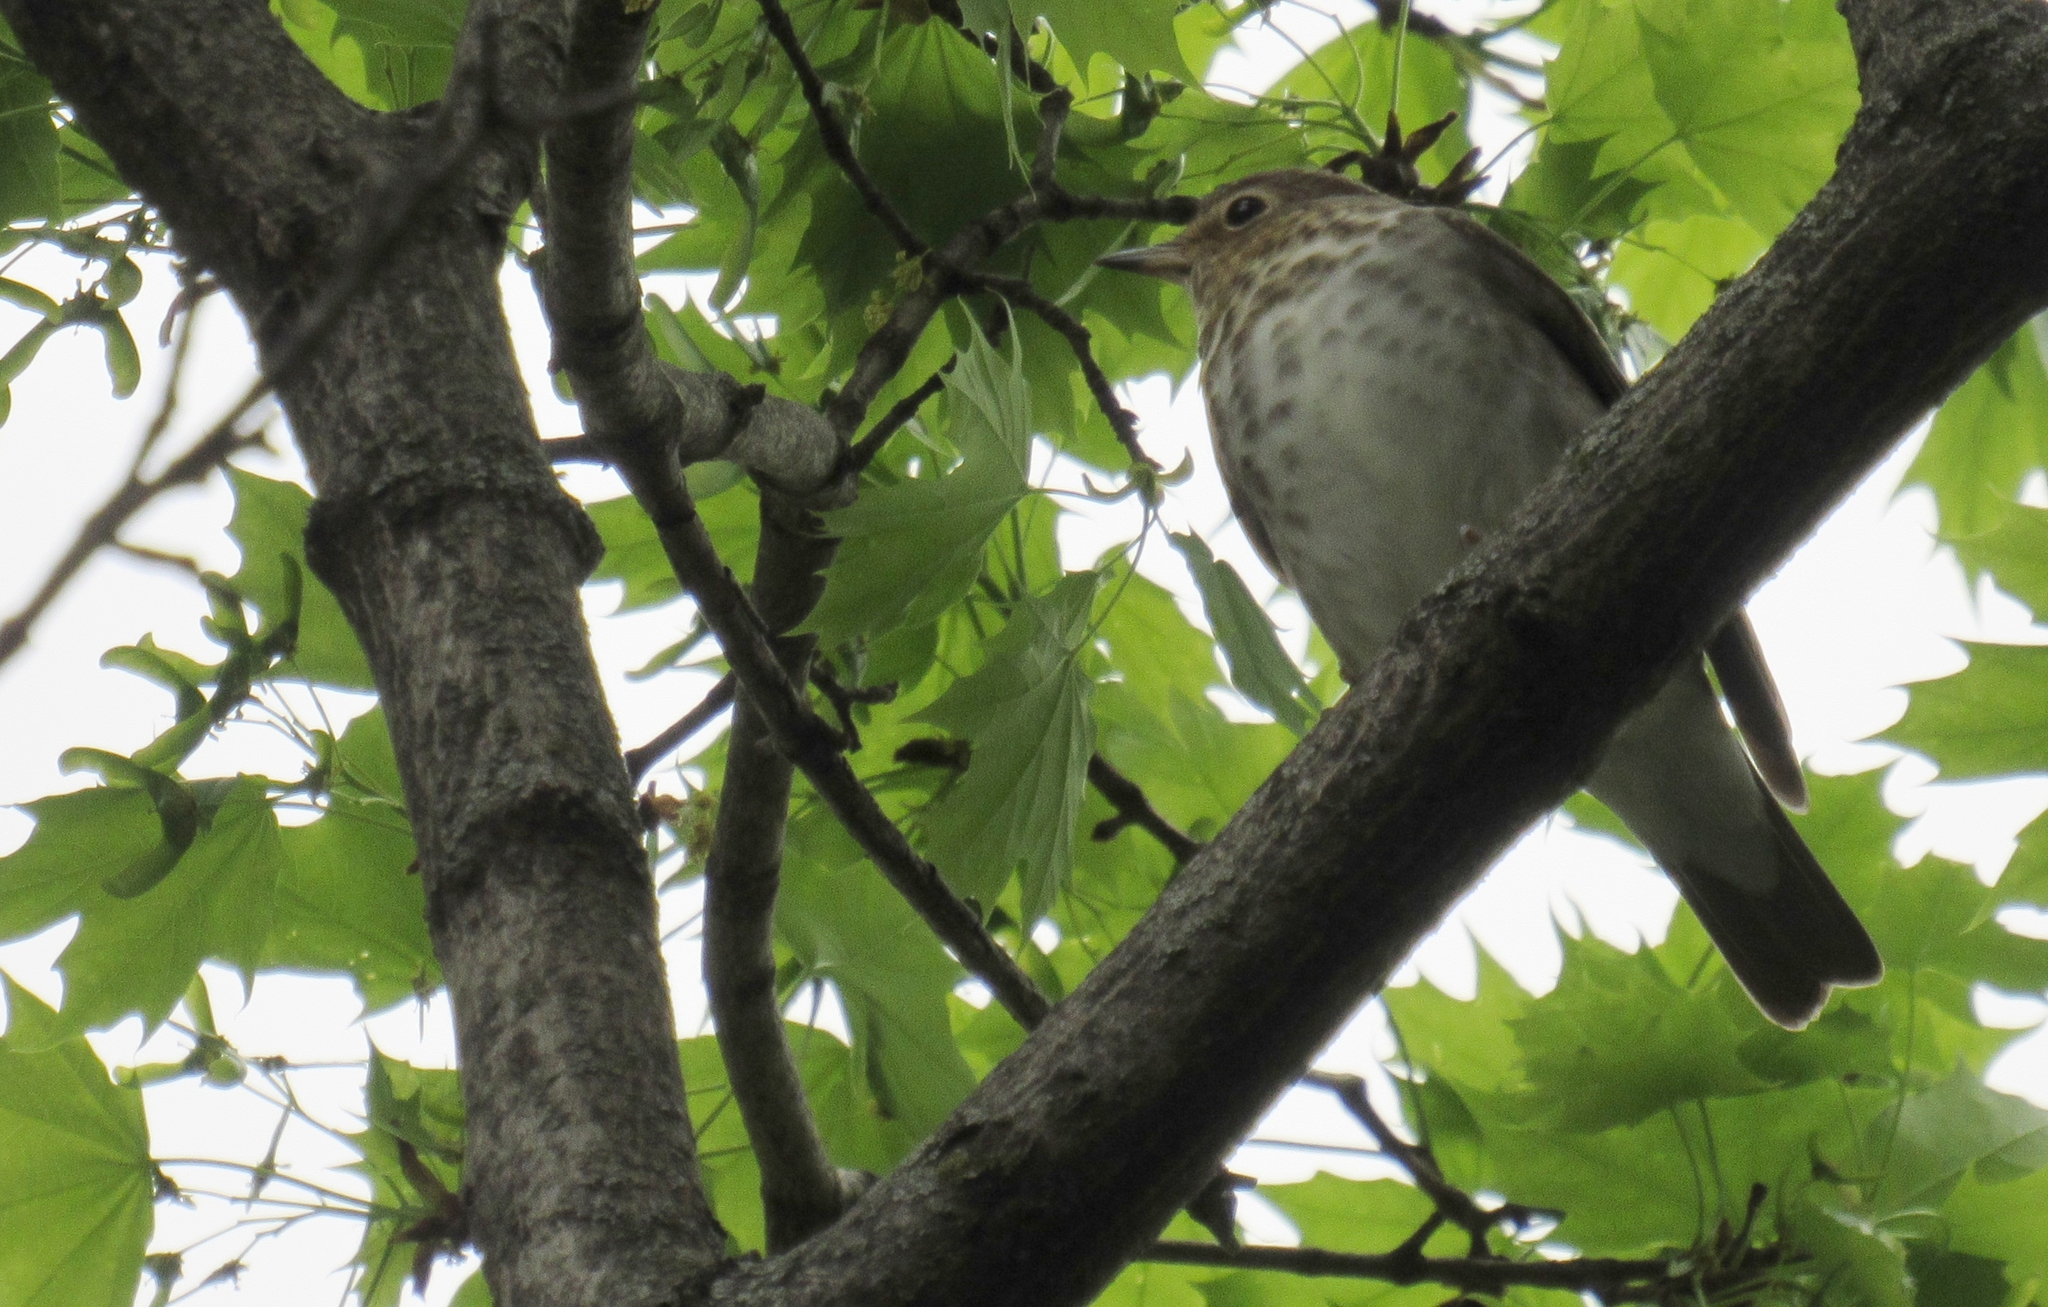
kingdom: Animalia
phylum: Chordata
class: Aves
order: Passeriformes
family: Turdidae
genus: Catharus
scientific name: Catharus ustulatus
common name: Swainson's thrush
